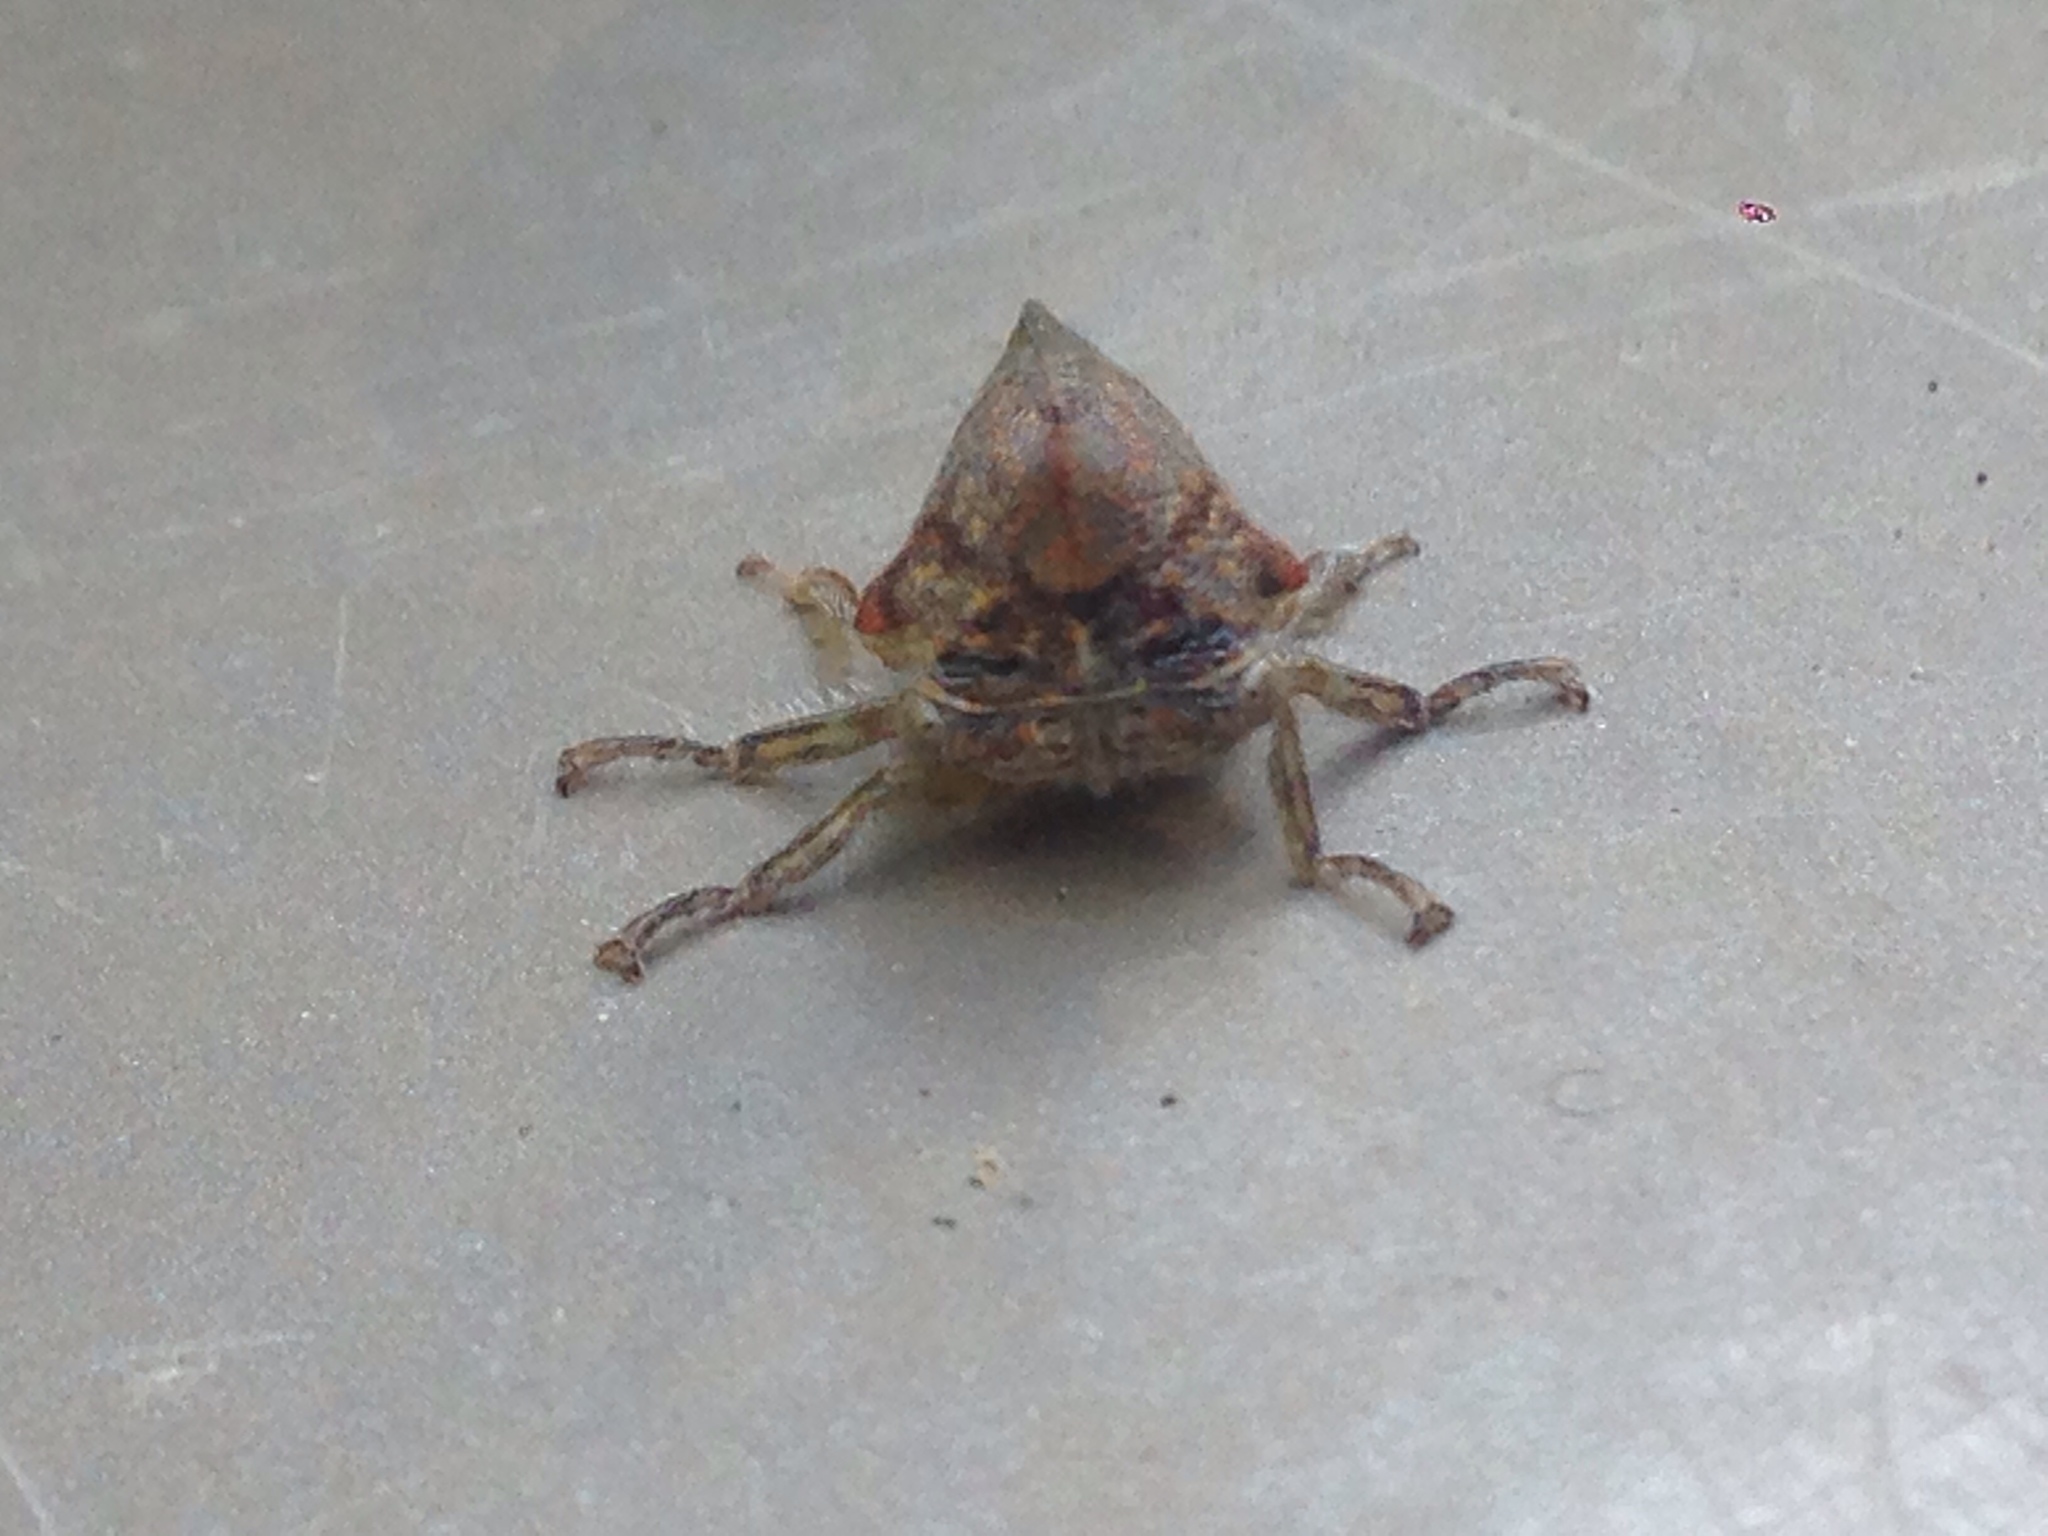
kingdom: Animalia
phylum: Arthropoda
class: Insecta
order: Hemiptera
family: Membracidae
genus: Platycotis
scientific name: Platycotis vittatus
